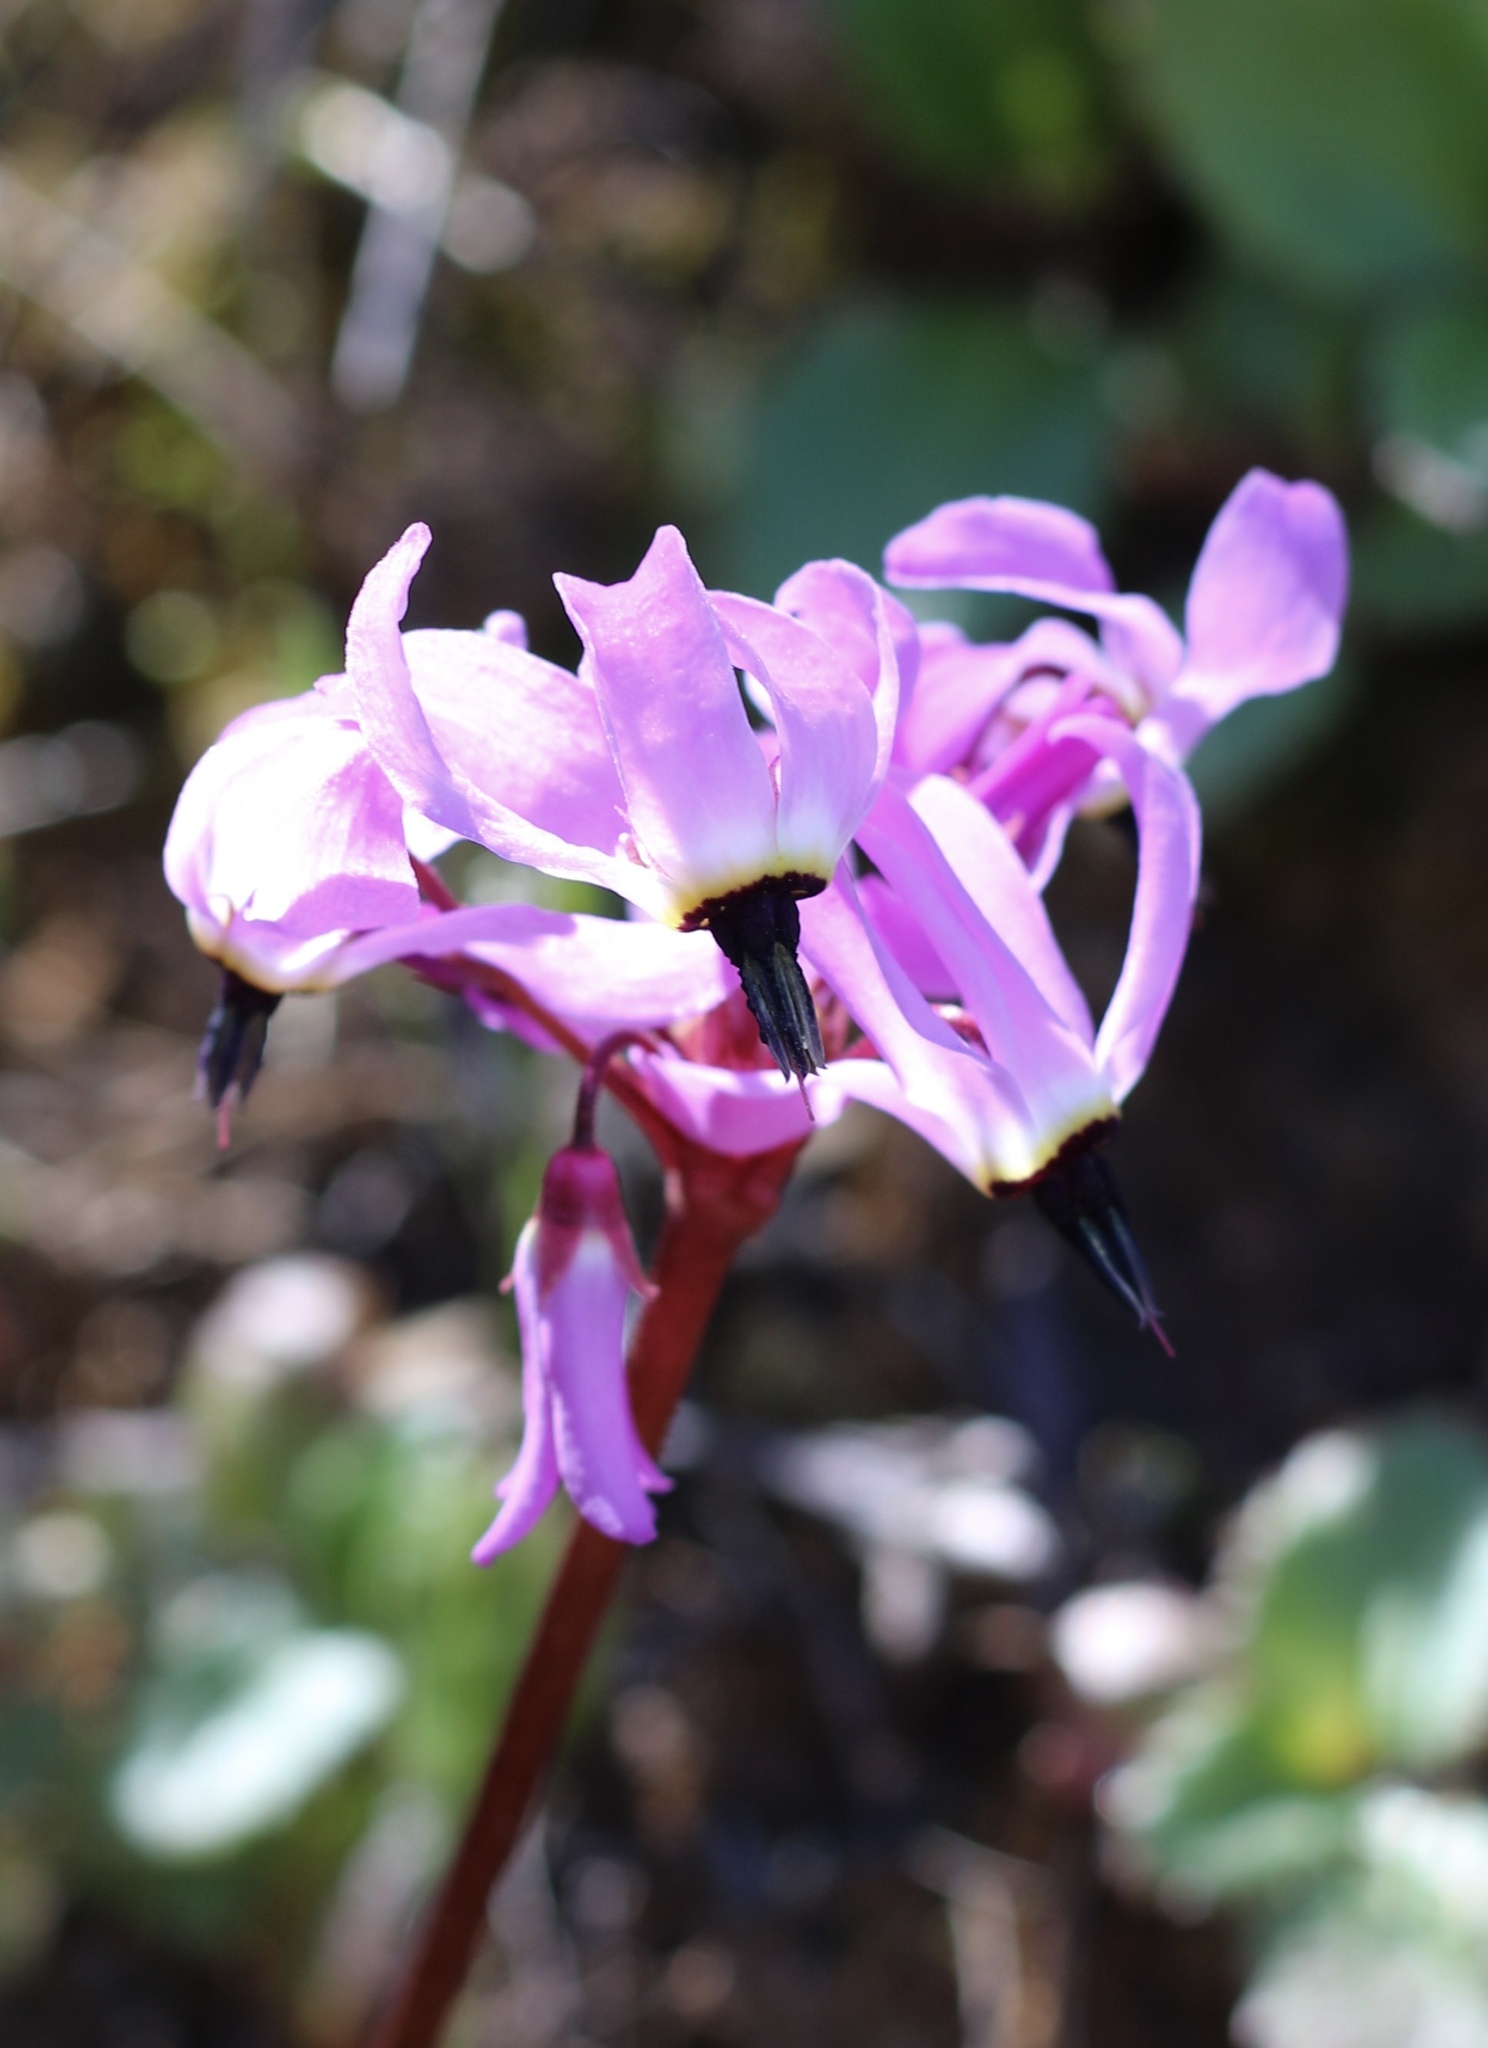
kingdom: Plantae
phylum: Tracheophyta
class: Magnoliopsida
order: Ericales
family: Primulaceae
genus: Dodecatheon
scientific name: Dodecatheon hendersonii
